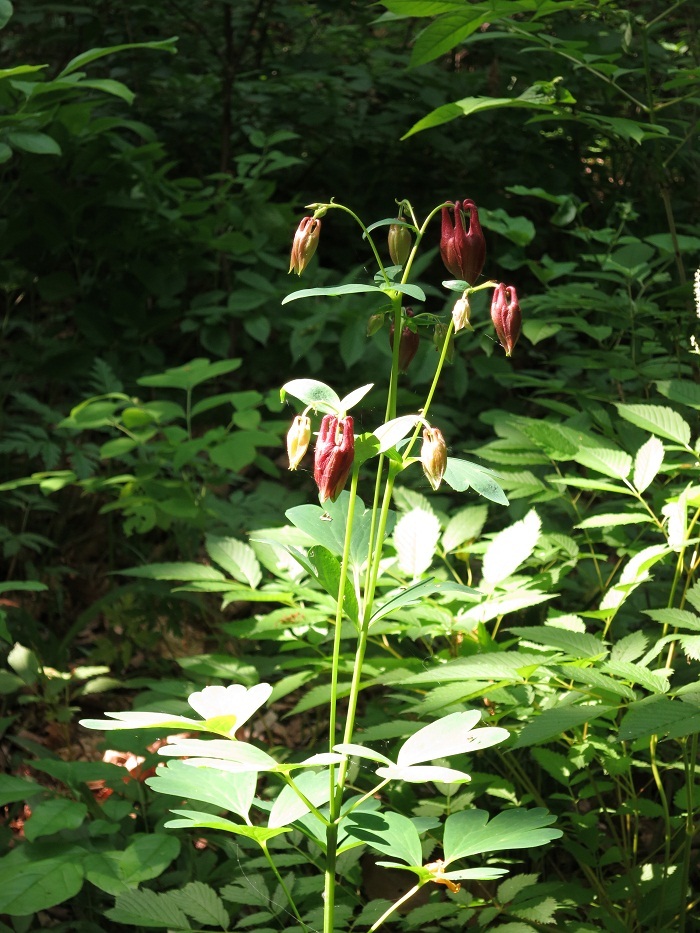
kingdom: Plantae
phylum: Tracheophyta
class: Magnoliopsida
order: Ranunculales
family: Ranunculaceae
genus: Aquilegia
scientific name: Aquilegia oxysepala
